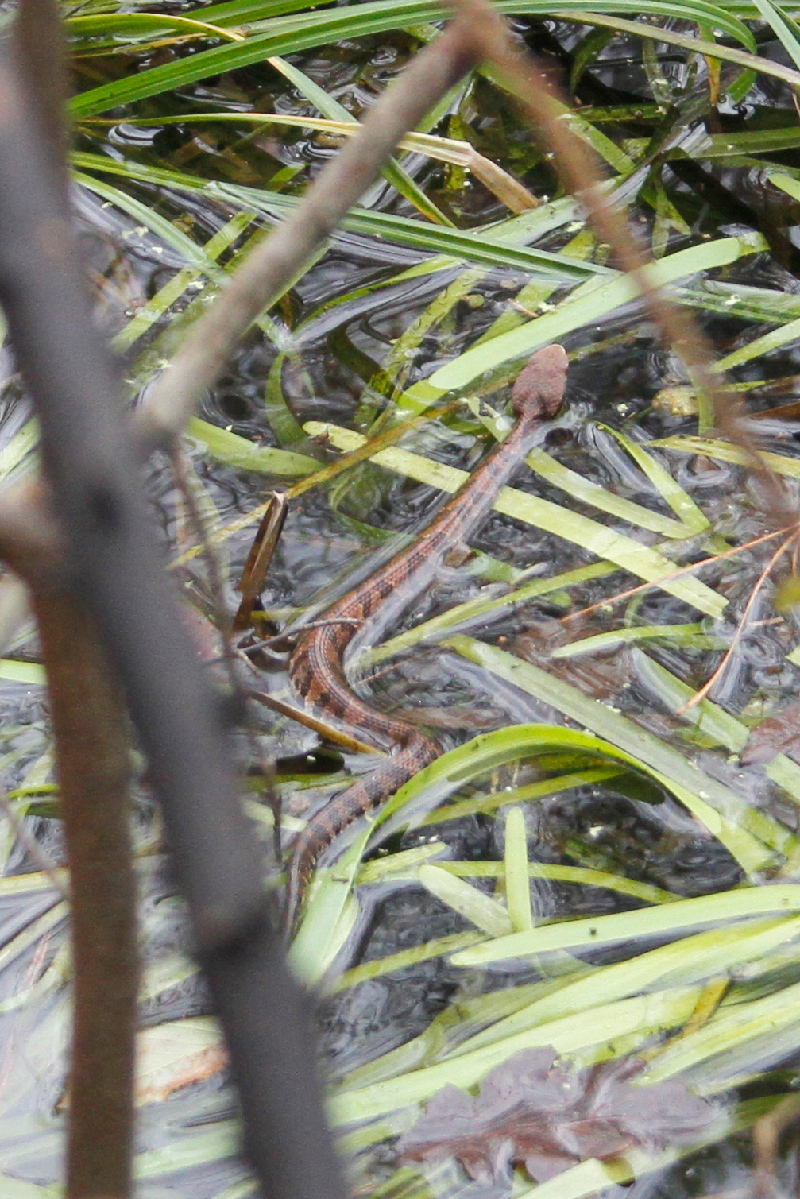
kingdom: Animalia
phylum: Chordata
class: Squamata
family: Viperidae
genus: Agkistrodon
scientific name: Agkistrodon piscivorus
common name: Cottonmouth
